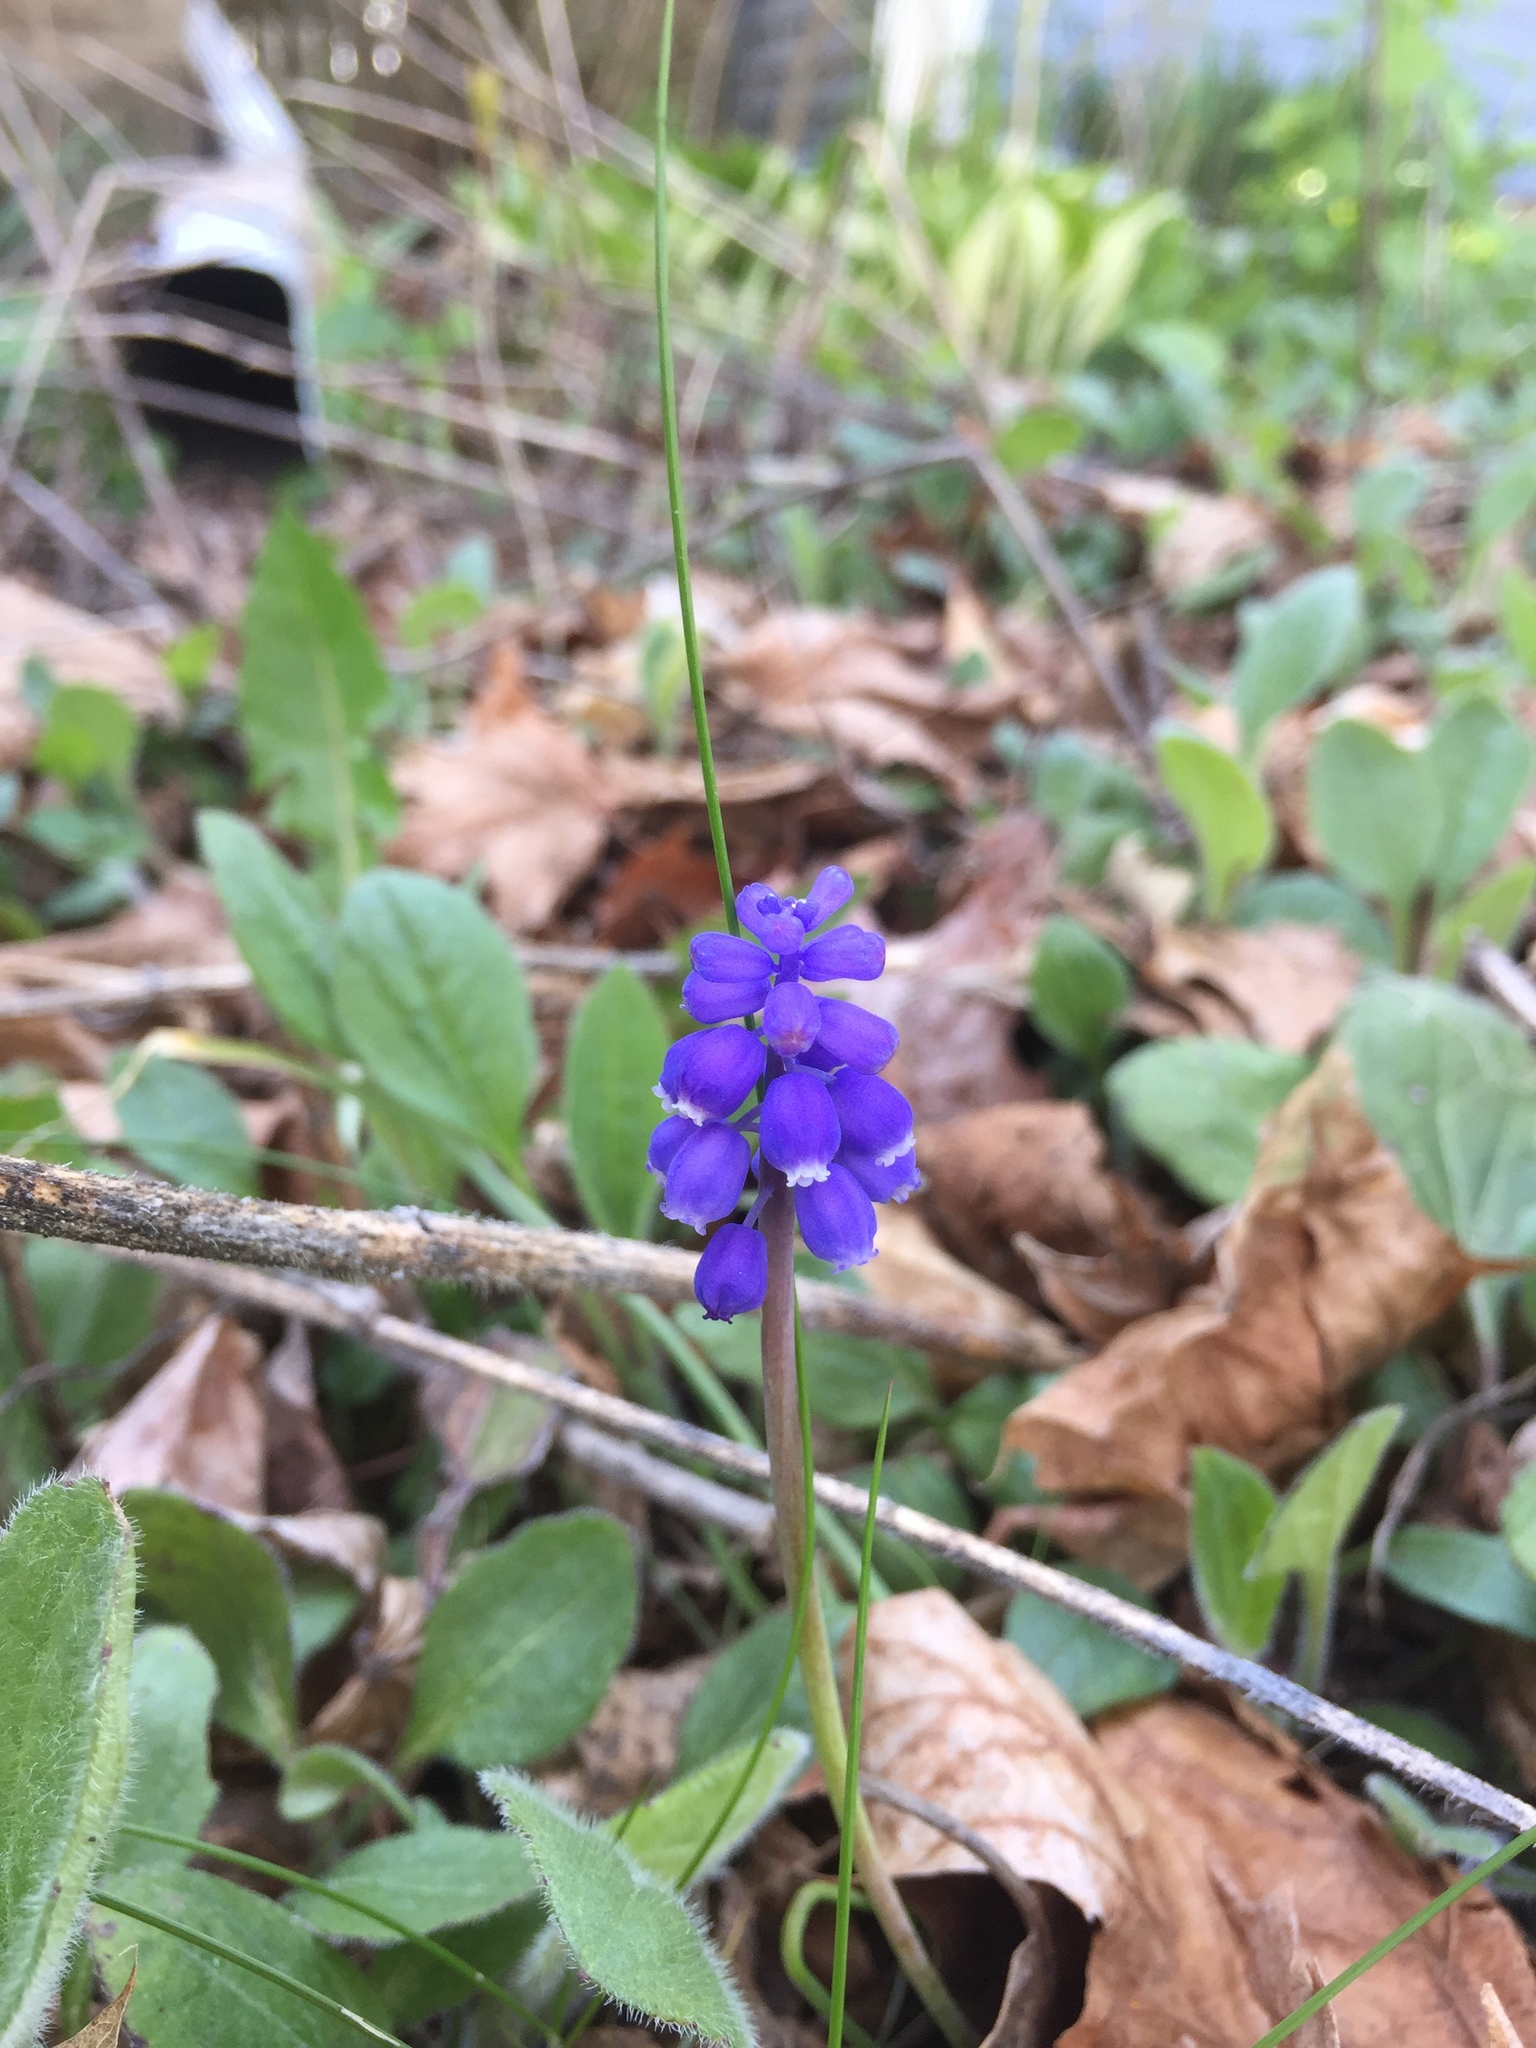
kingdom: Plantae
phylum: Tracheophyta
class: Liliopsida
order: Asparagales
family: Asparagaceae
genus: Muscari
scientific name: Muscari botryoides
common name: Compact grape-hyacinth
